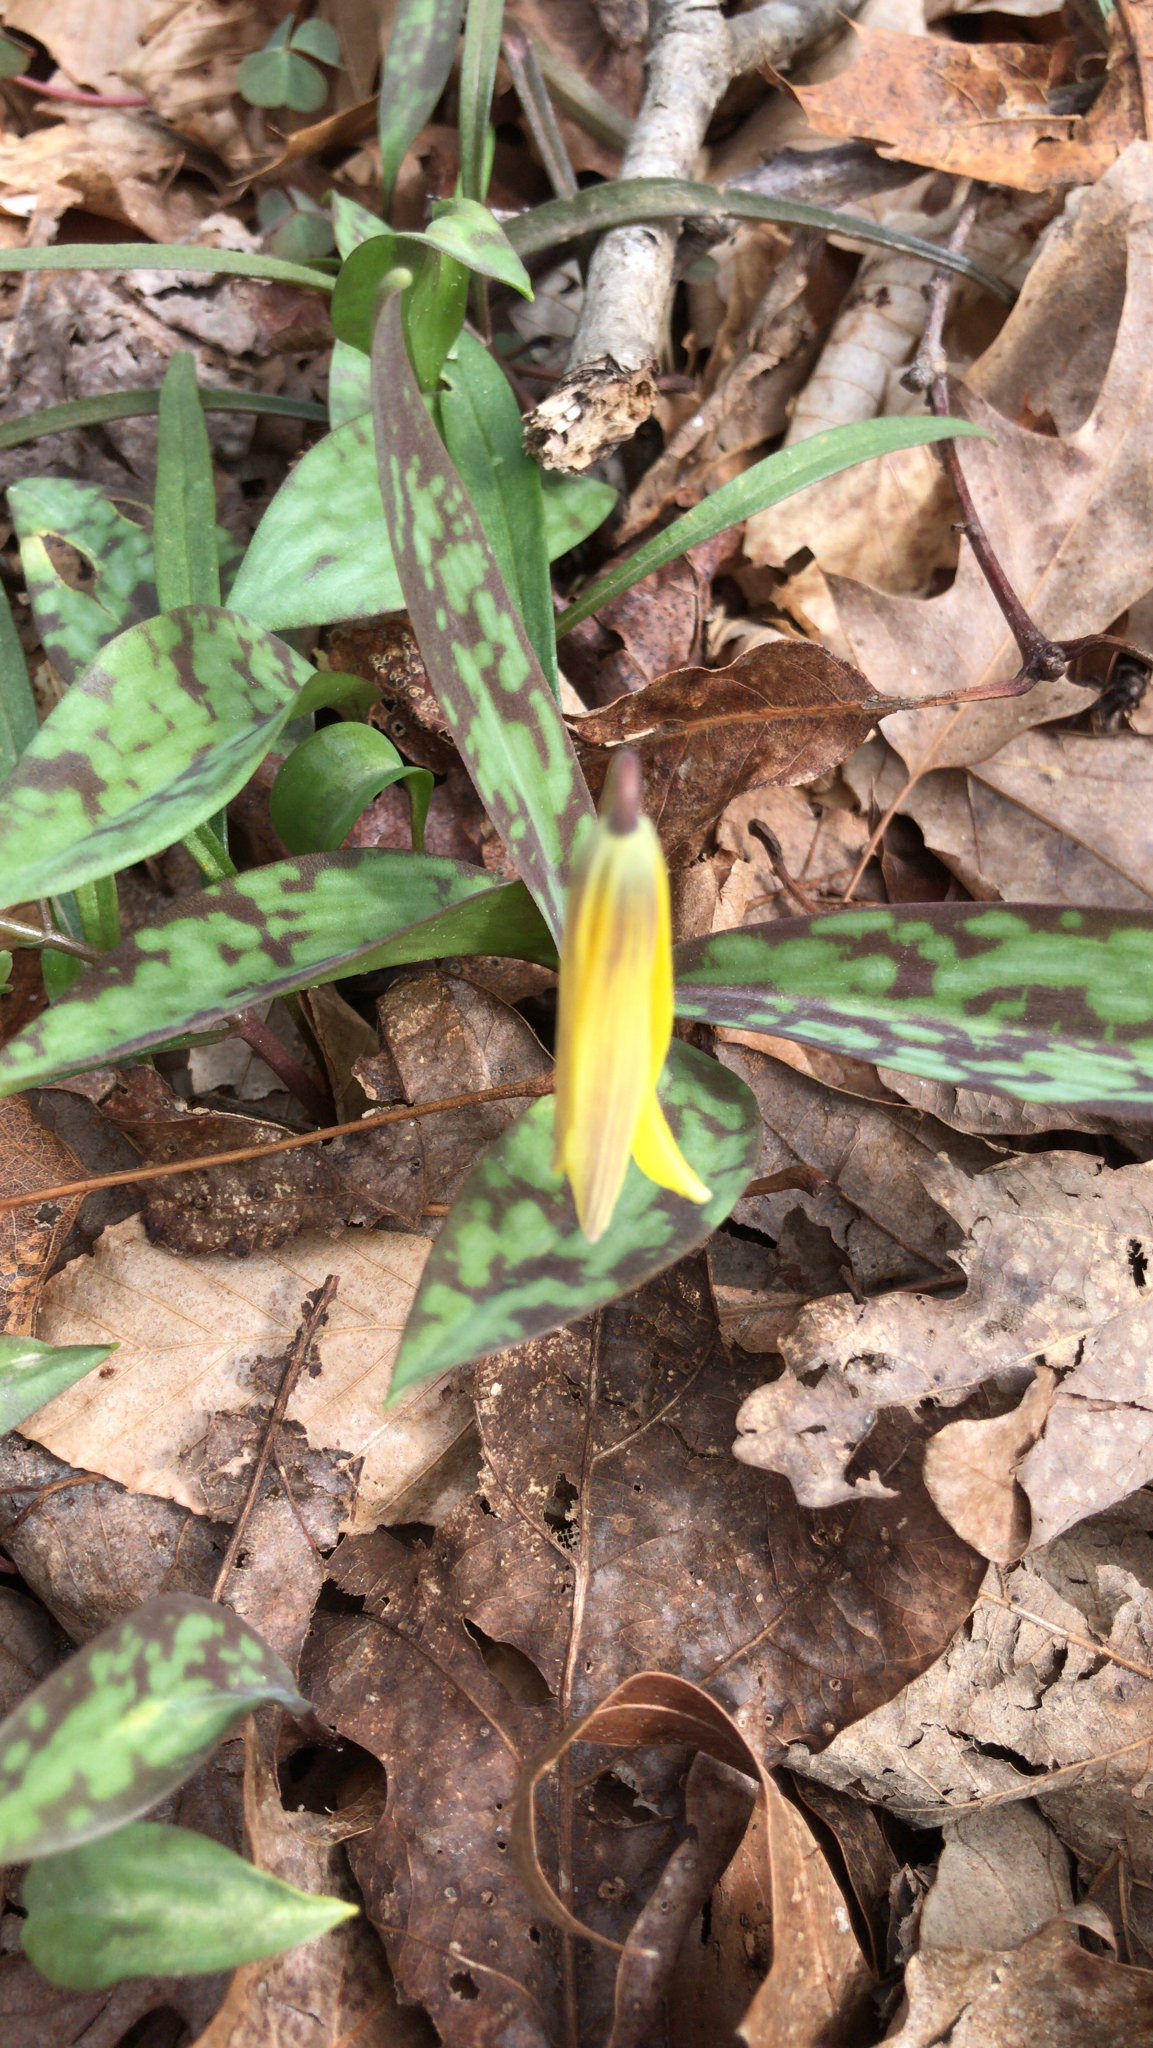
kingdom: Plantae
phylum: Tracheophyta
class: Liliopsida
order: Liliales
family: Liliaceae
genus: Erythronium
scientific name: Erythronium americanum
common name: Yellow adder's-tongue
